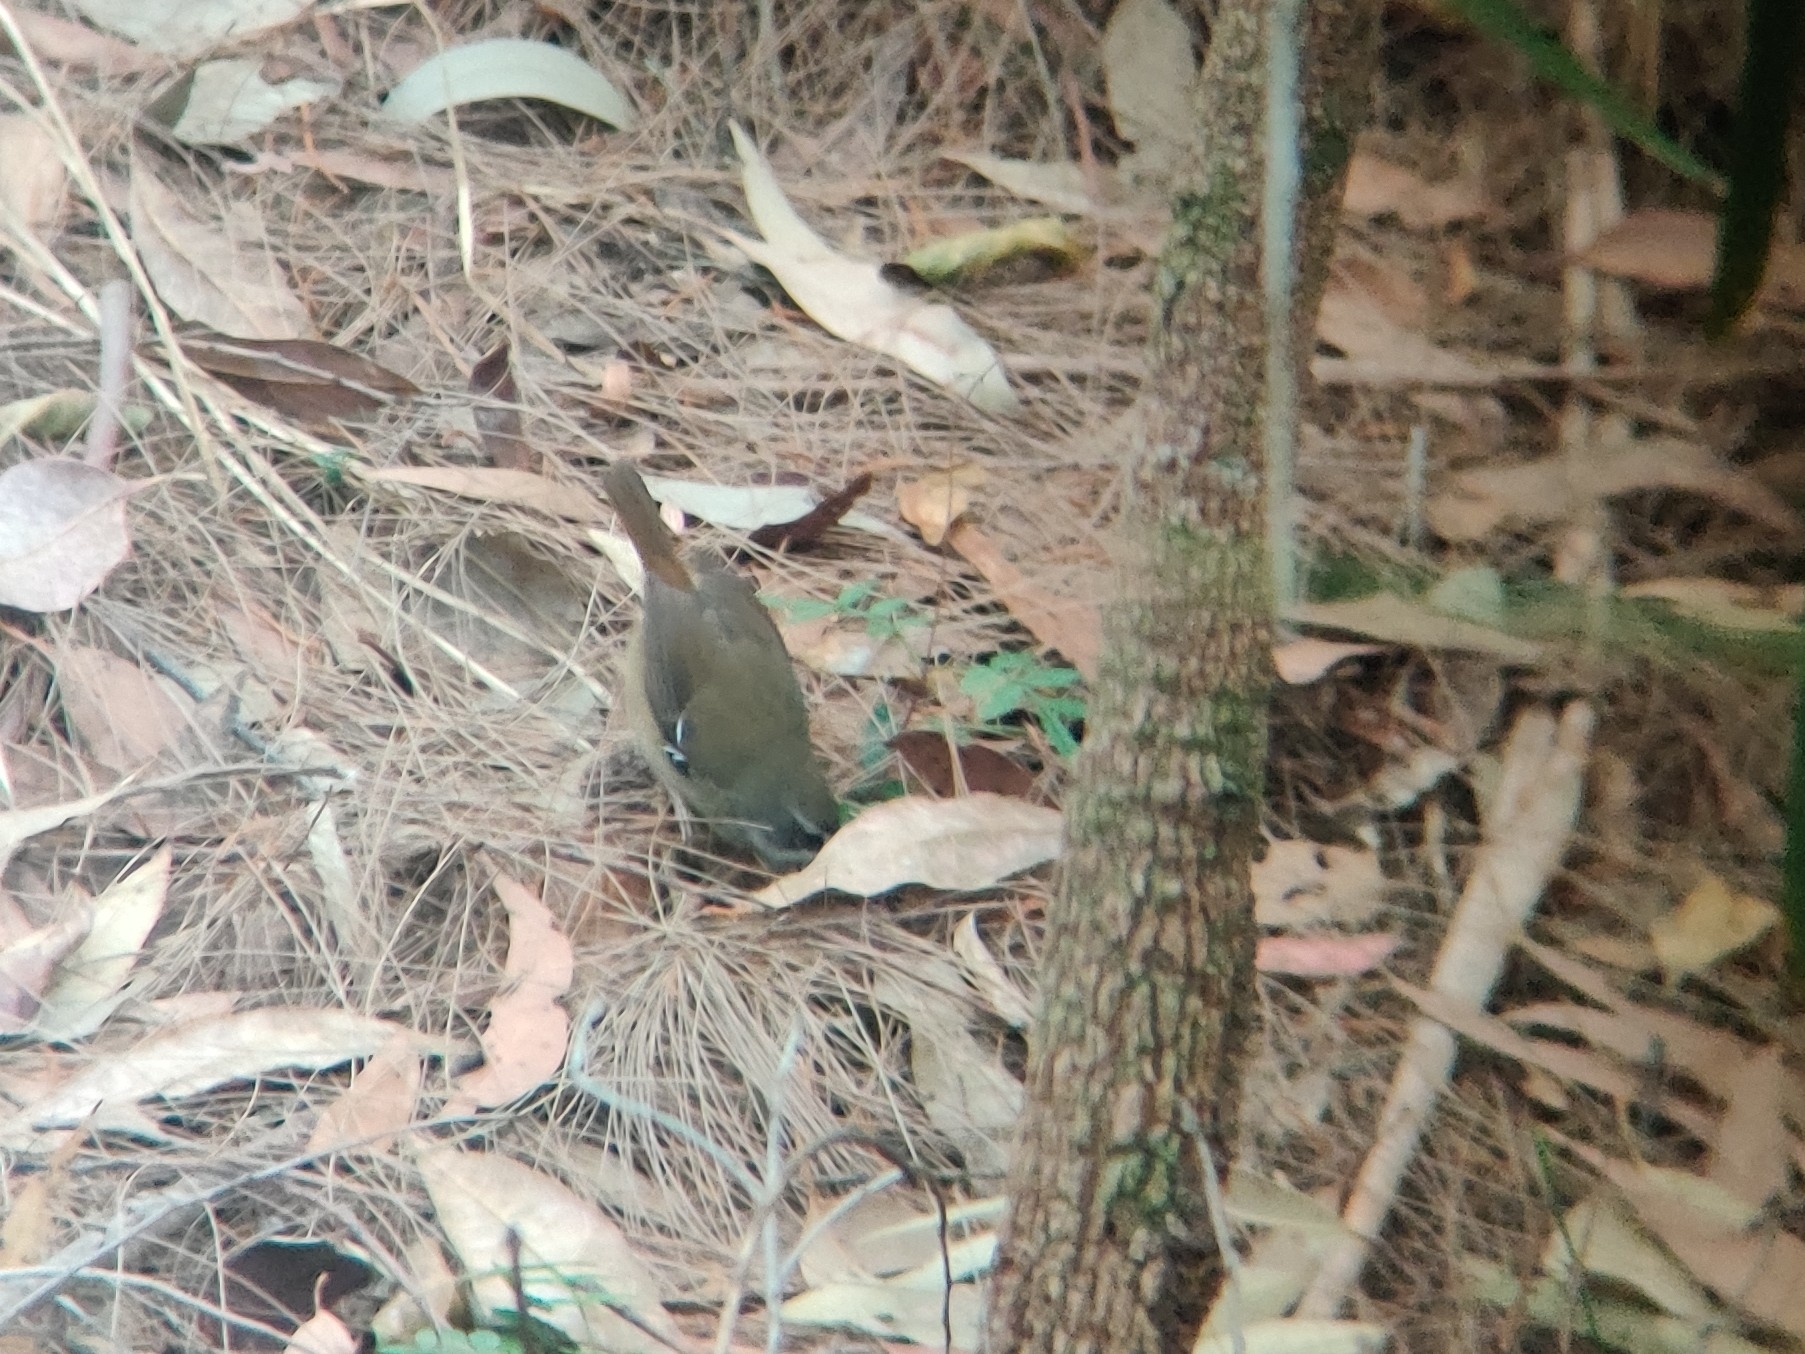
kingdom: Animalia
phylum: Chordata
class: Aves
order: Passeriformes
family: Acanthizidae
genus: Sericornis
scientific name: Sericornis frontalis
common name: White-browed scrubwren
